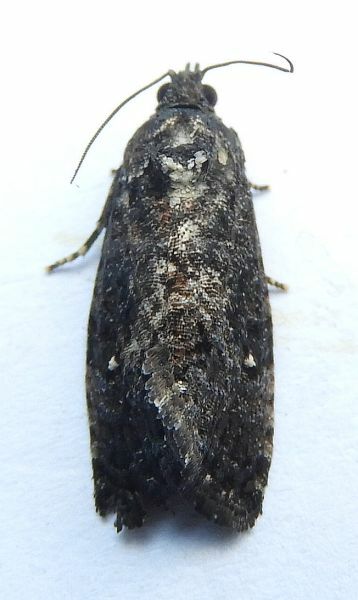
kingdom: Animalia
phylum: Arthropoda
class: Insecta
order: Lepidoptera
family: Tortricidae
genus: Gymnandrosoma
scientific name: Gymnandrosoma punctidiscanum
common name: Dotted ecdytolopha moth
